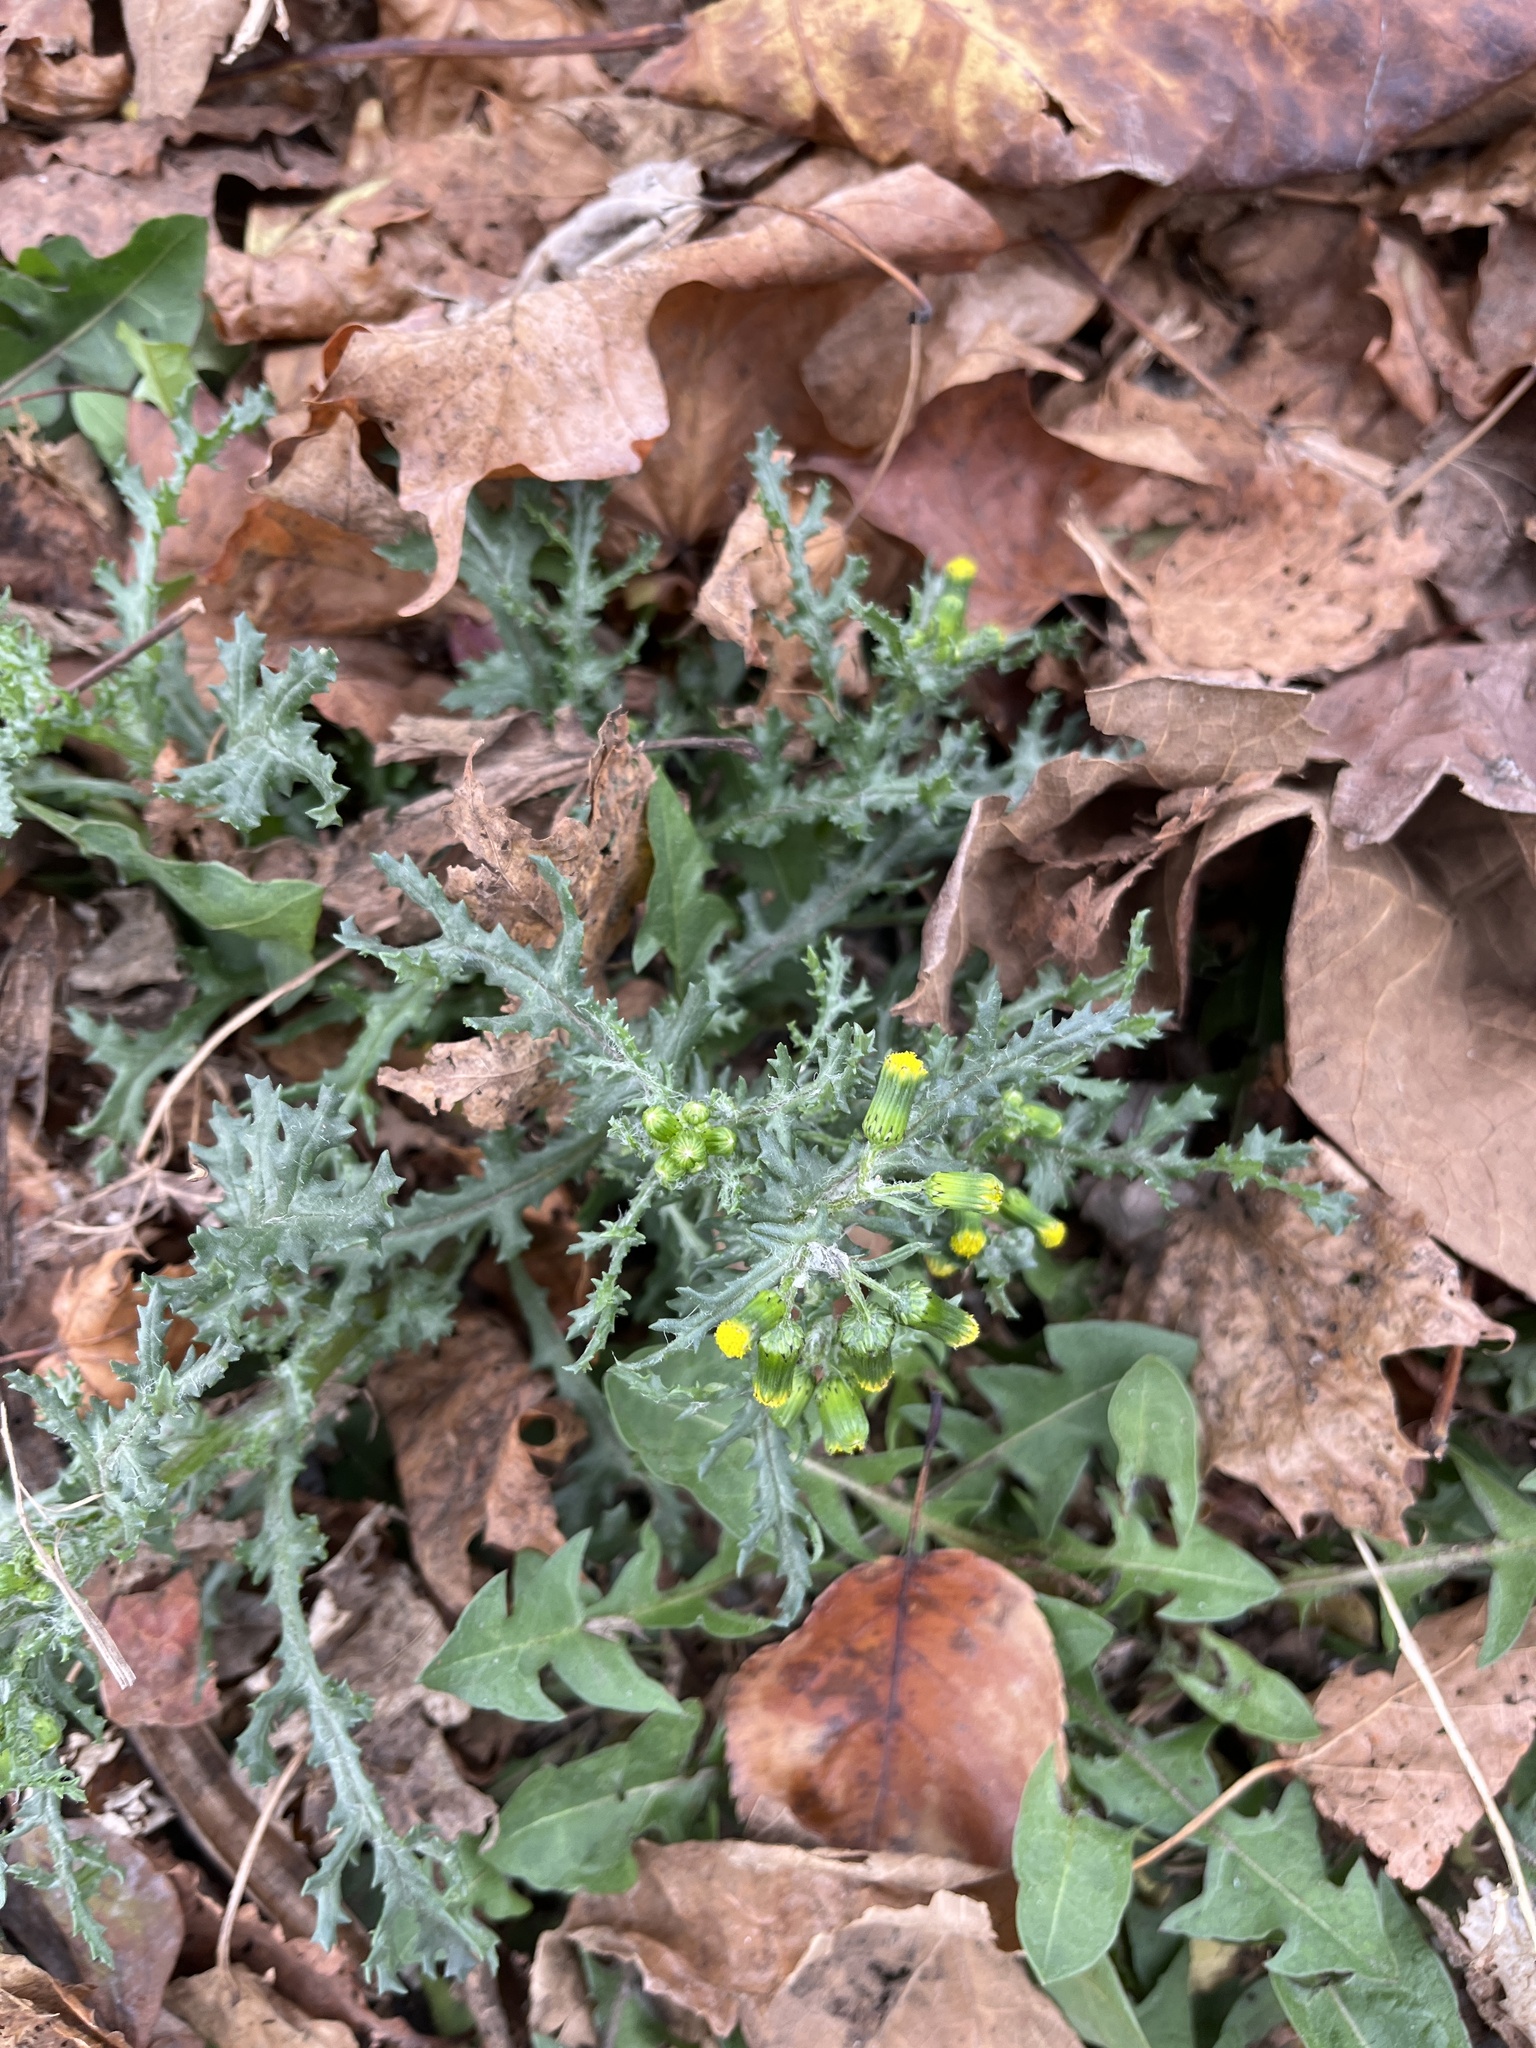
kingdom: Plantae
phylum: Tracheophyta
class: Magnoliopsida
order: Asterales
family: Asteraceae
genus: Senecio
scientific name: Senecio vulgaris
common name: Old-man-in-the-spring
